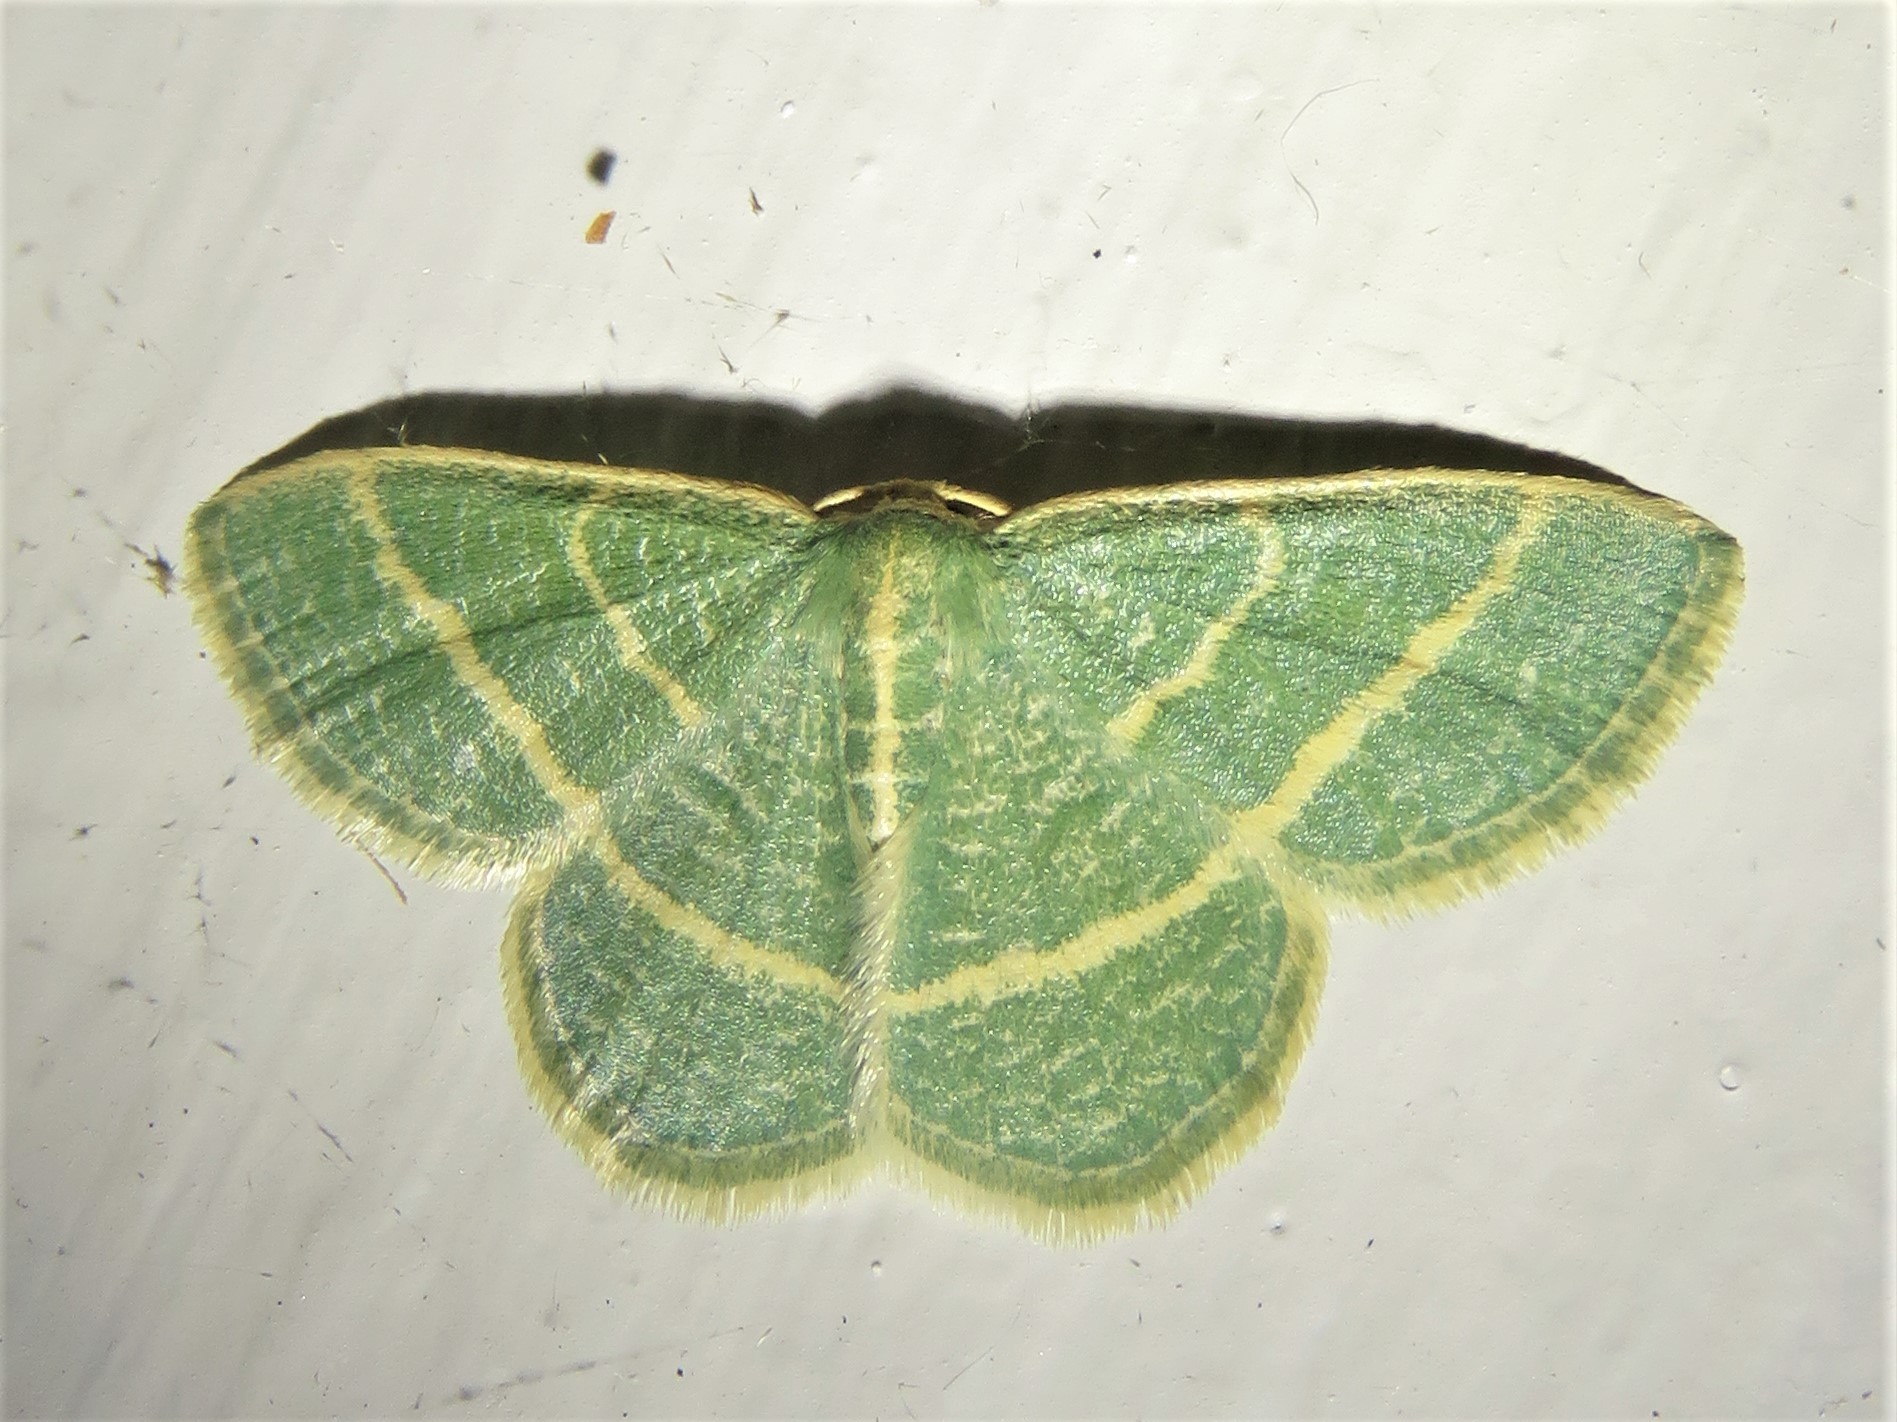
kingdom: Animalia
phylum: Arthropoda
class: Insecta
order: Lepidoptera
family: Geometridae
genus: Chlorochlamys
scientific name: Chlorochlamys chloroleucaria
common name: Blackberry looper
